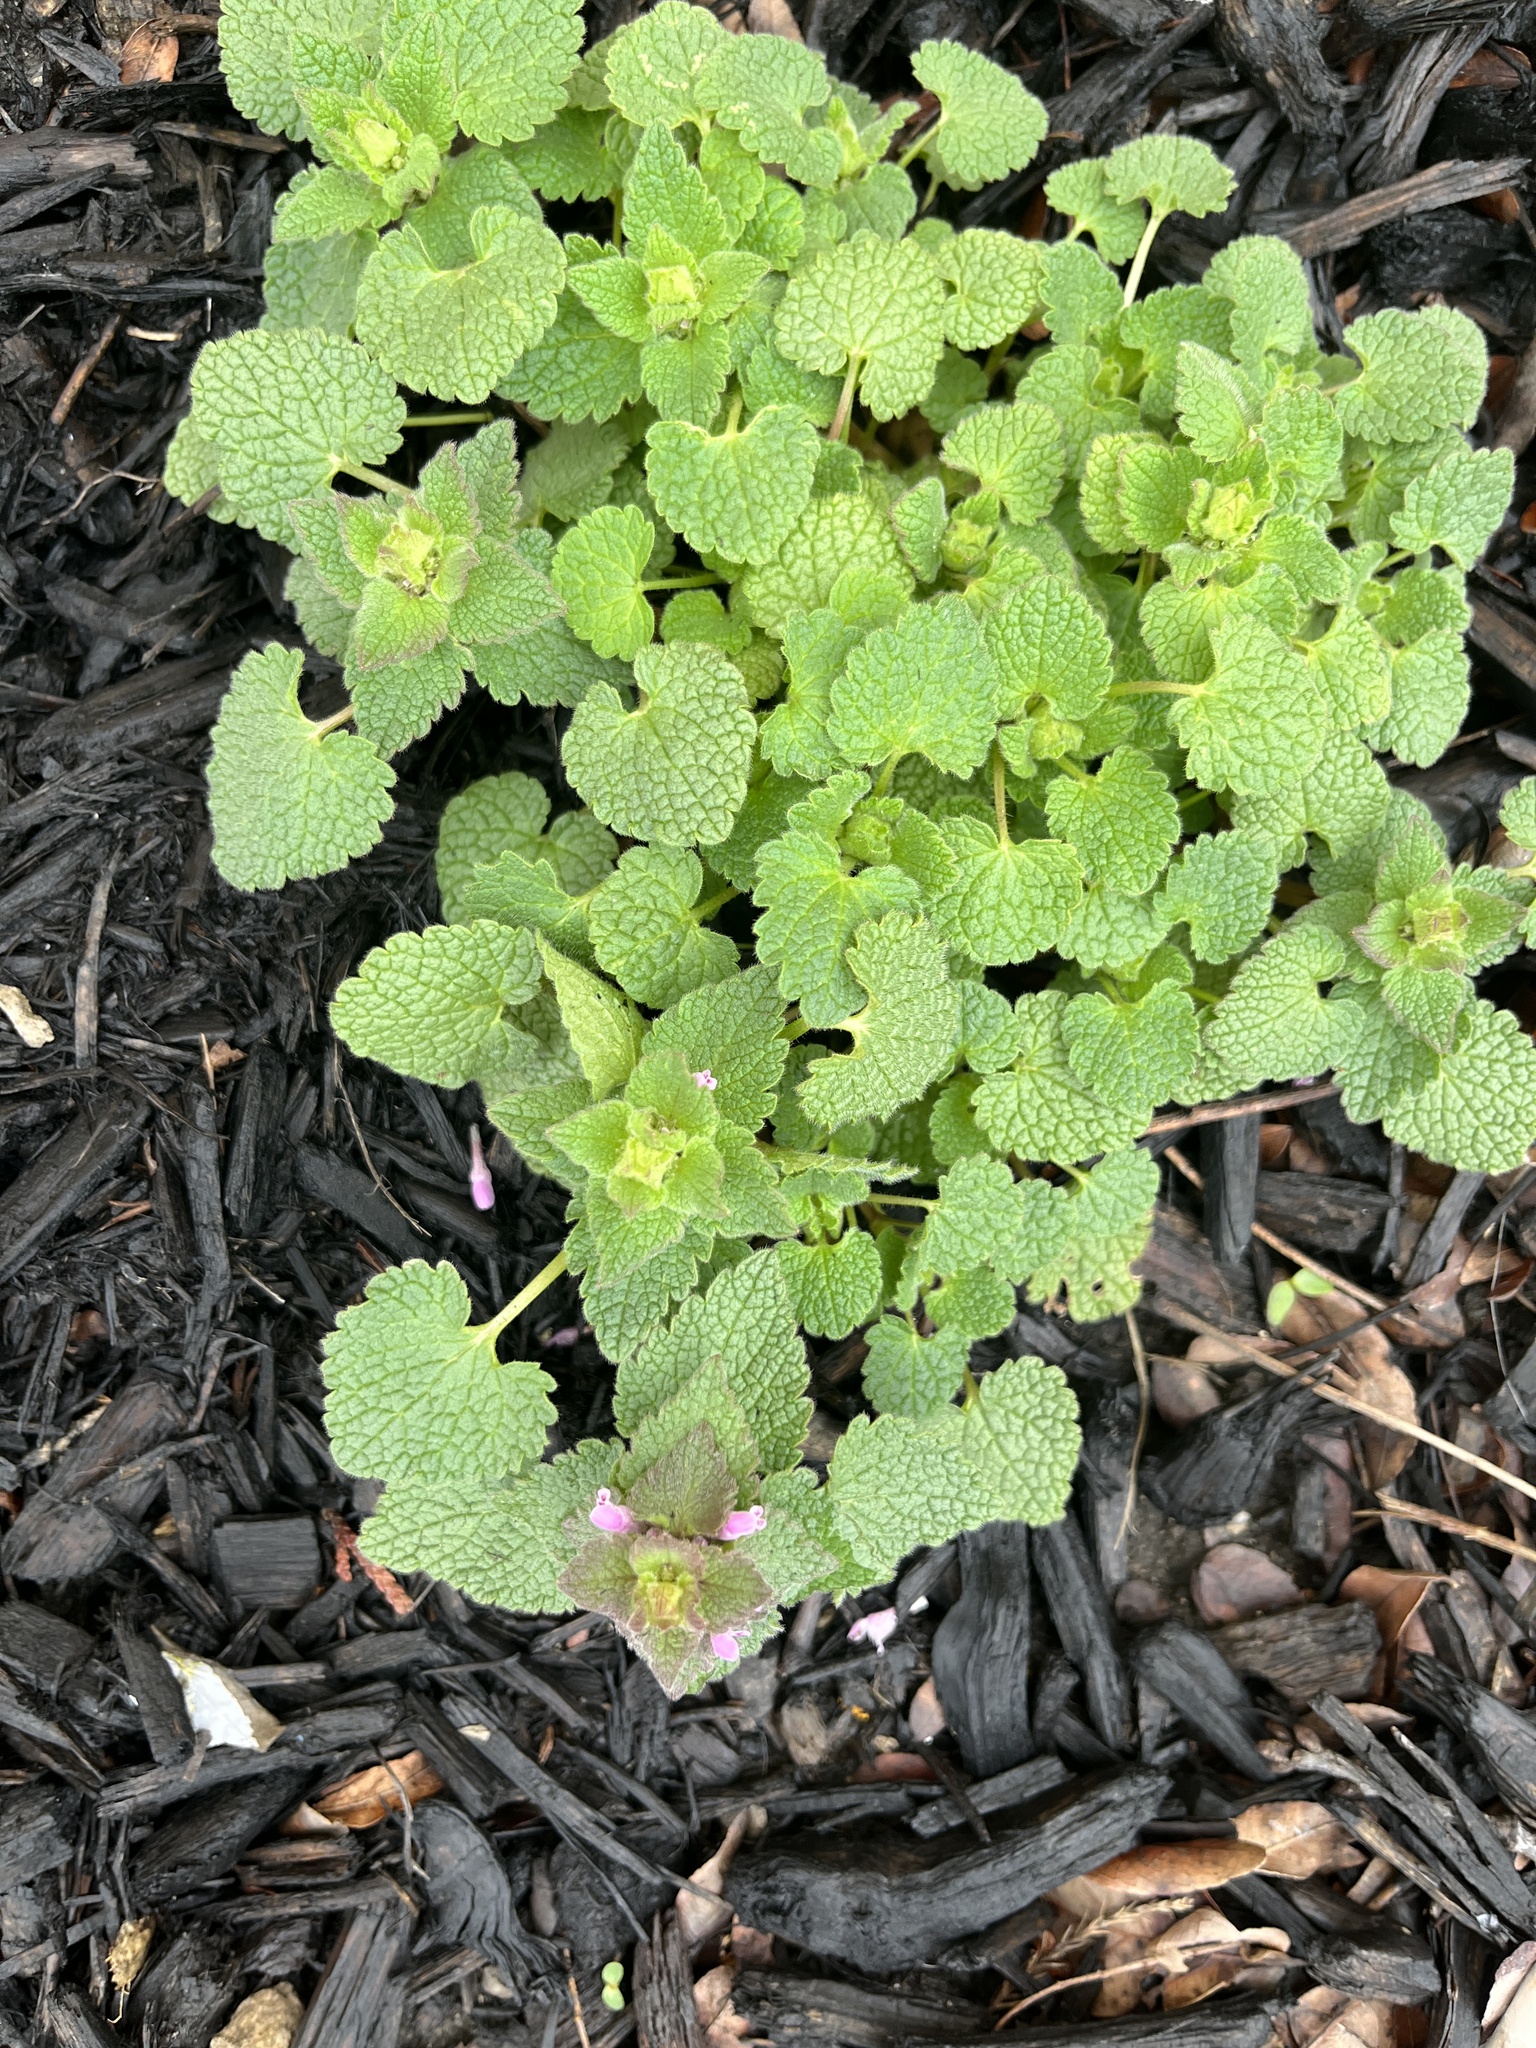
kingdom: Plantae
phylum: Tracheophyta
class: Magnoliopsida
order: Lamiales
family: Lamiaceae
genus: Lamium
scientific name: Lamium purpureum
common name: Red dead-nettle
